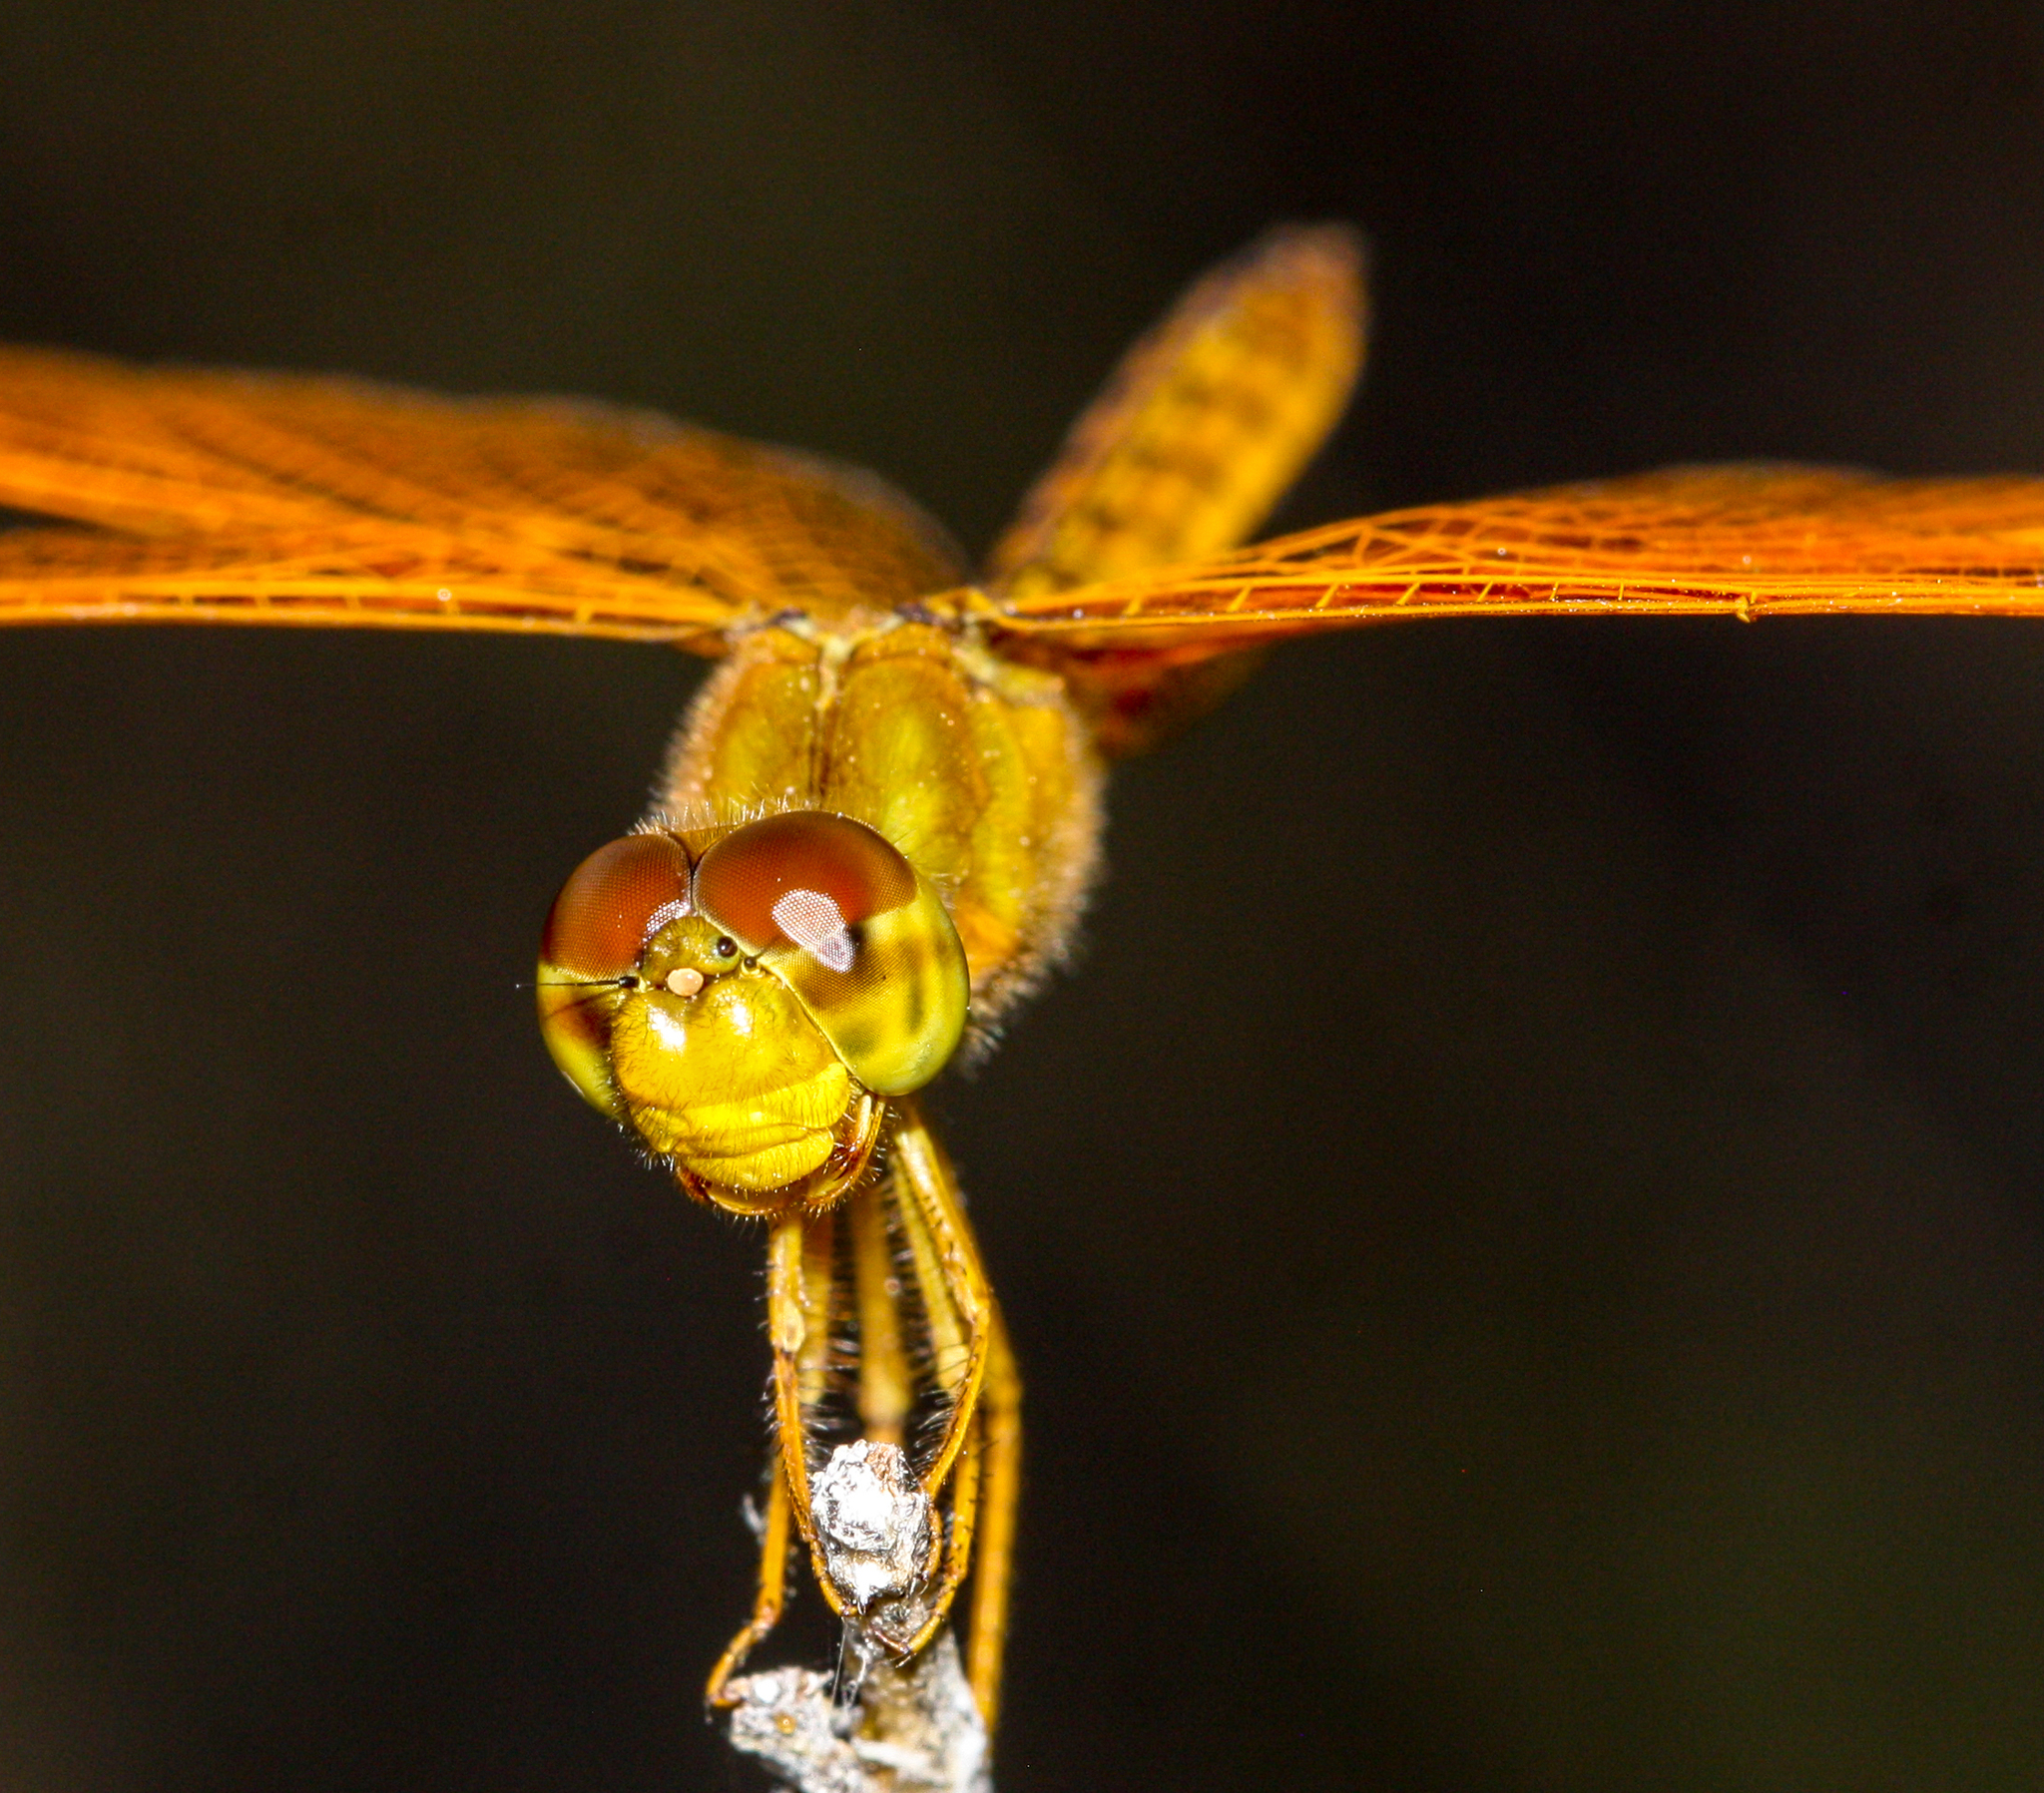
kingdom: Animalia
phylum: Arthropoda
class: Insecta
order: Odonata
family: Libellulidae
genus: Perithemis
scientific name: Perithemis intensa
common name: Mexican amberwing
